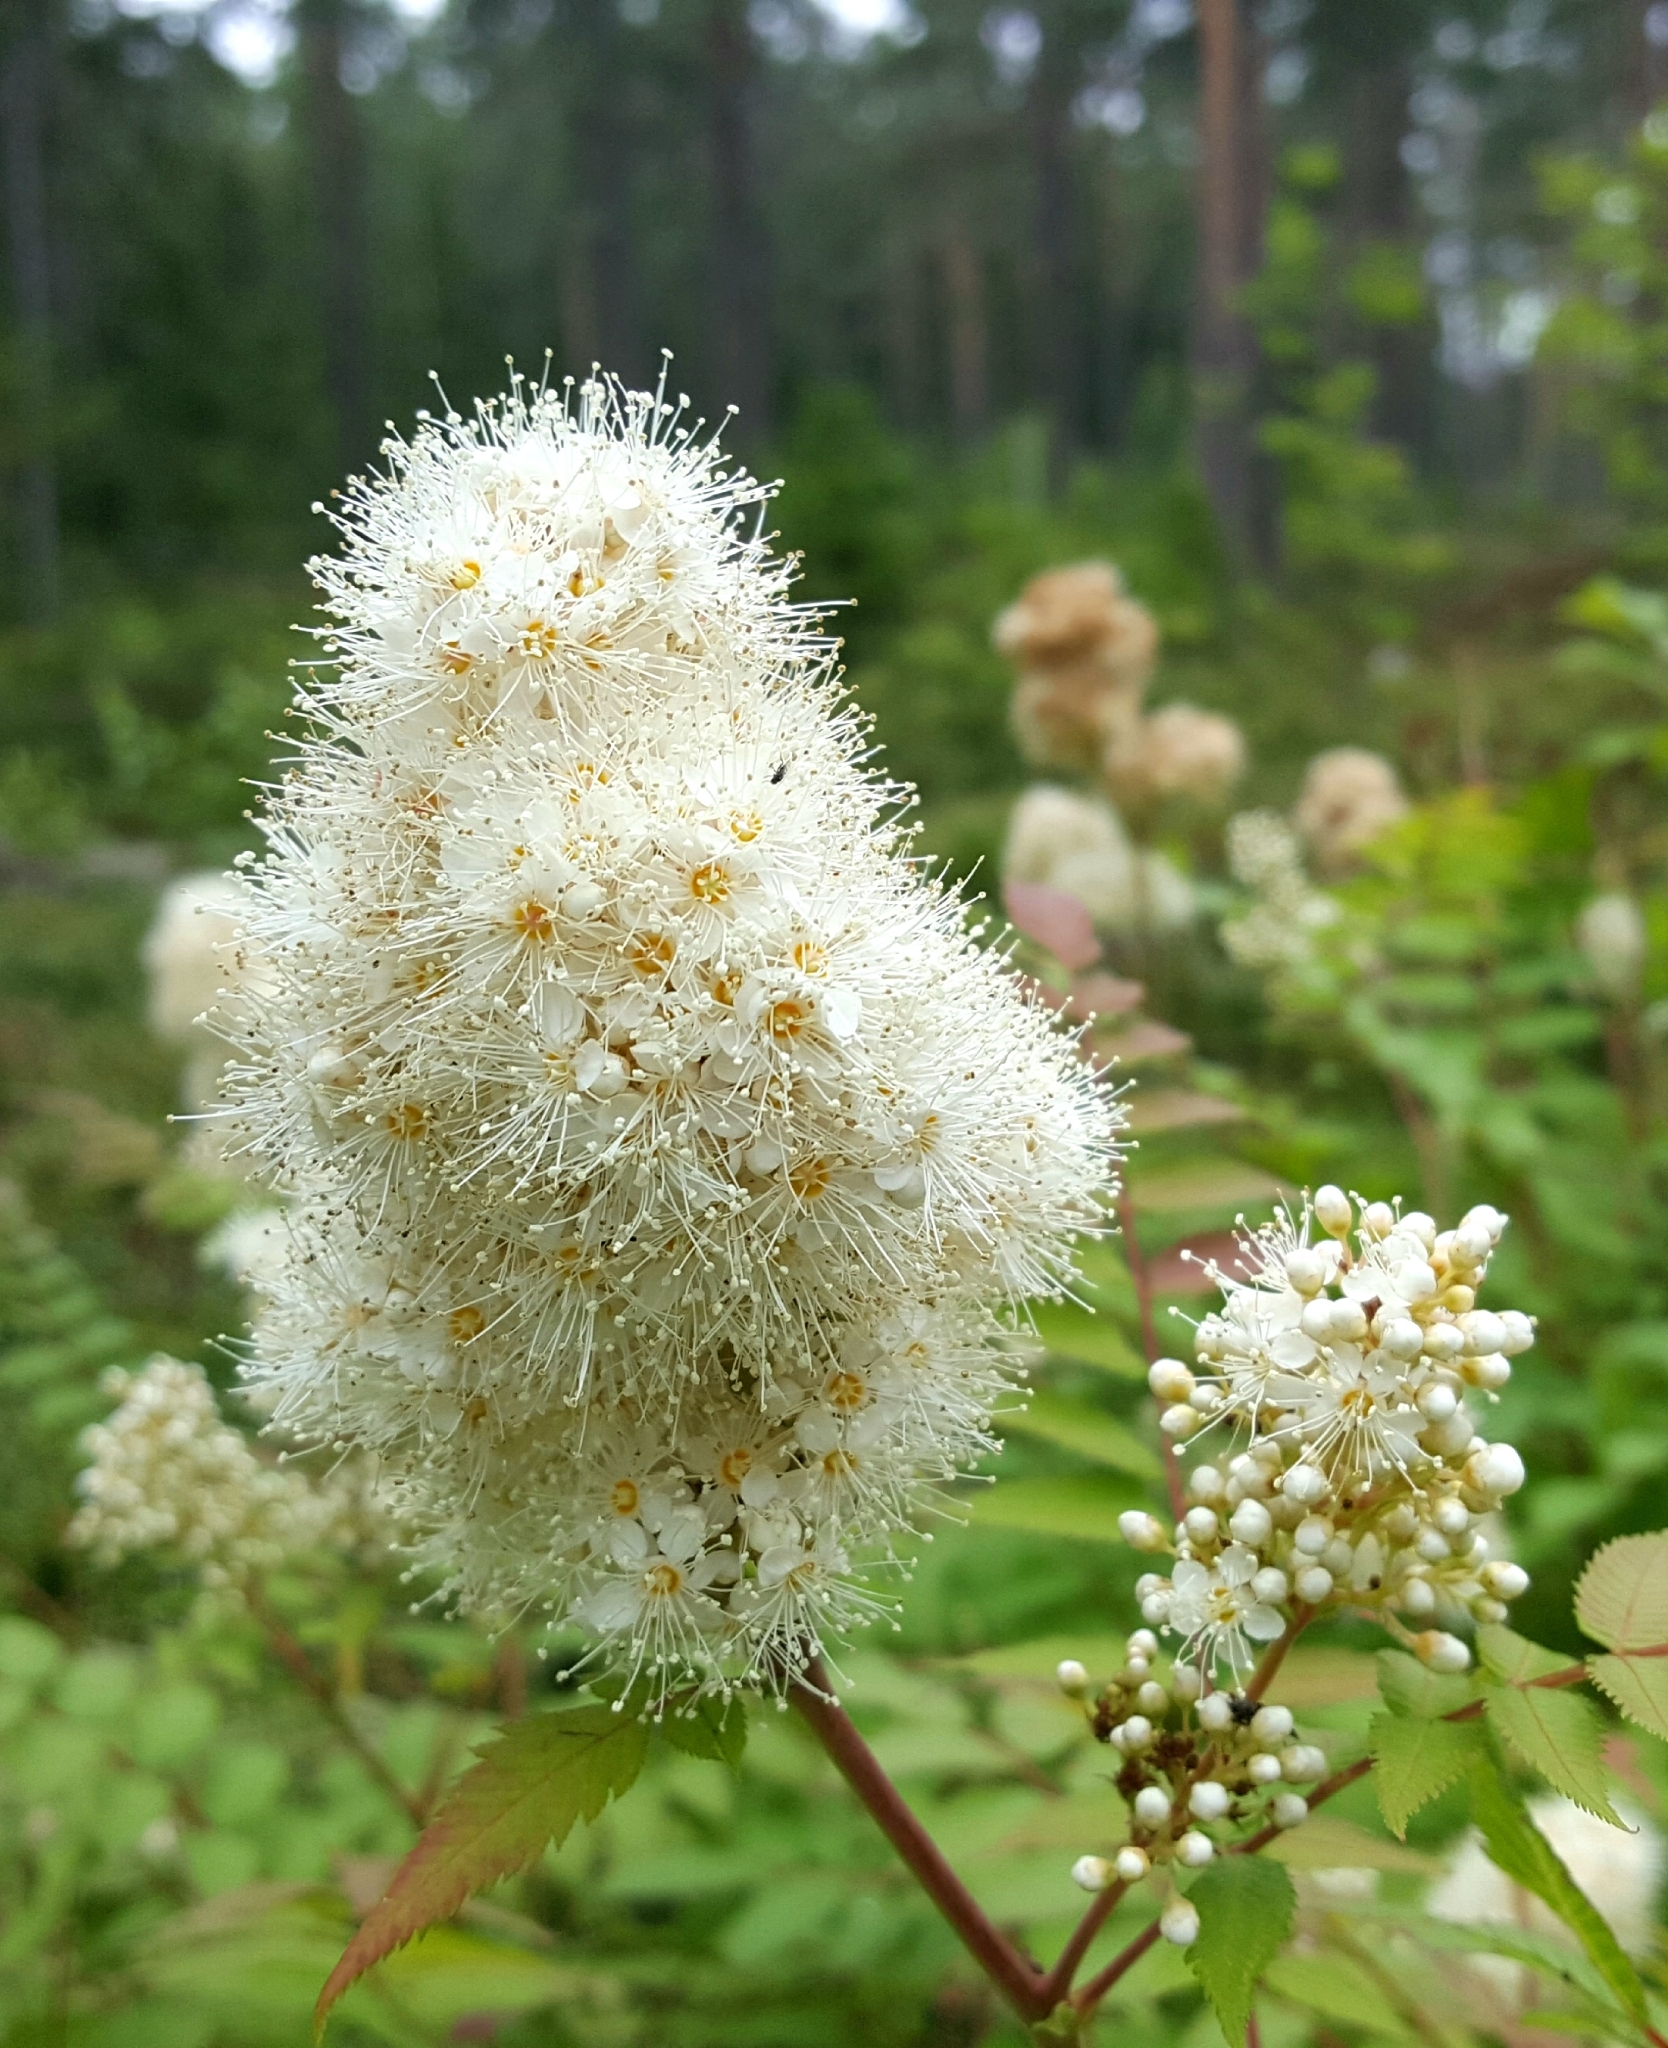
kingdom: Plantae
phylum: Tracheophyta
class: Magnoliopsida
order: Rosales
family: Rosaceae
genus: Sorbaria
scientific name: Sorbaria sorbifolia
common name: False spiraea
